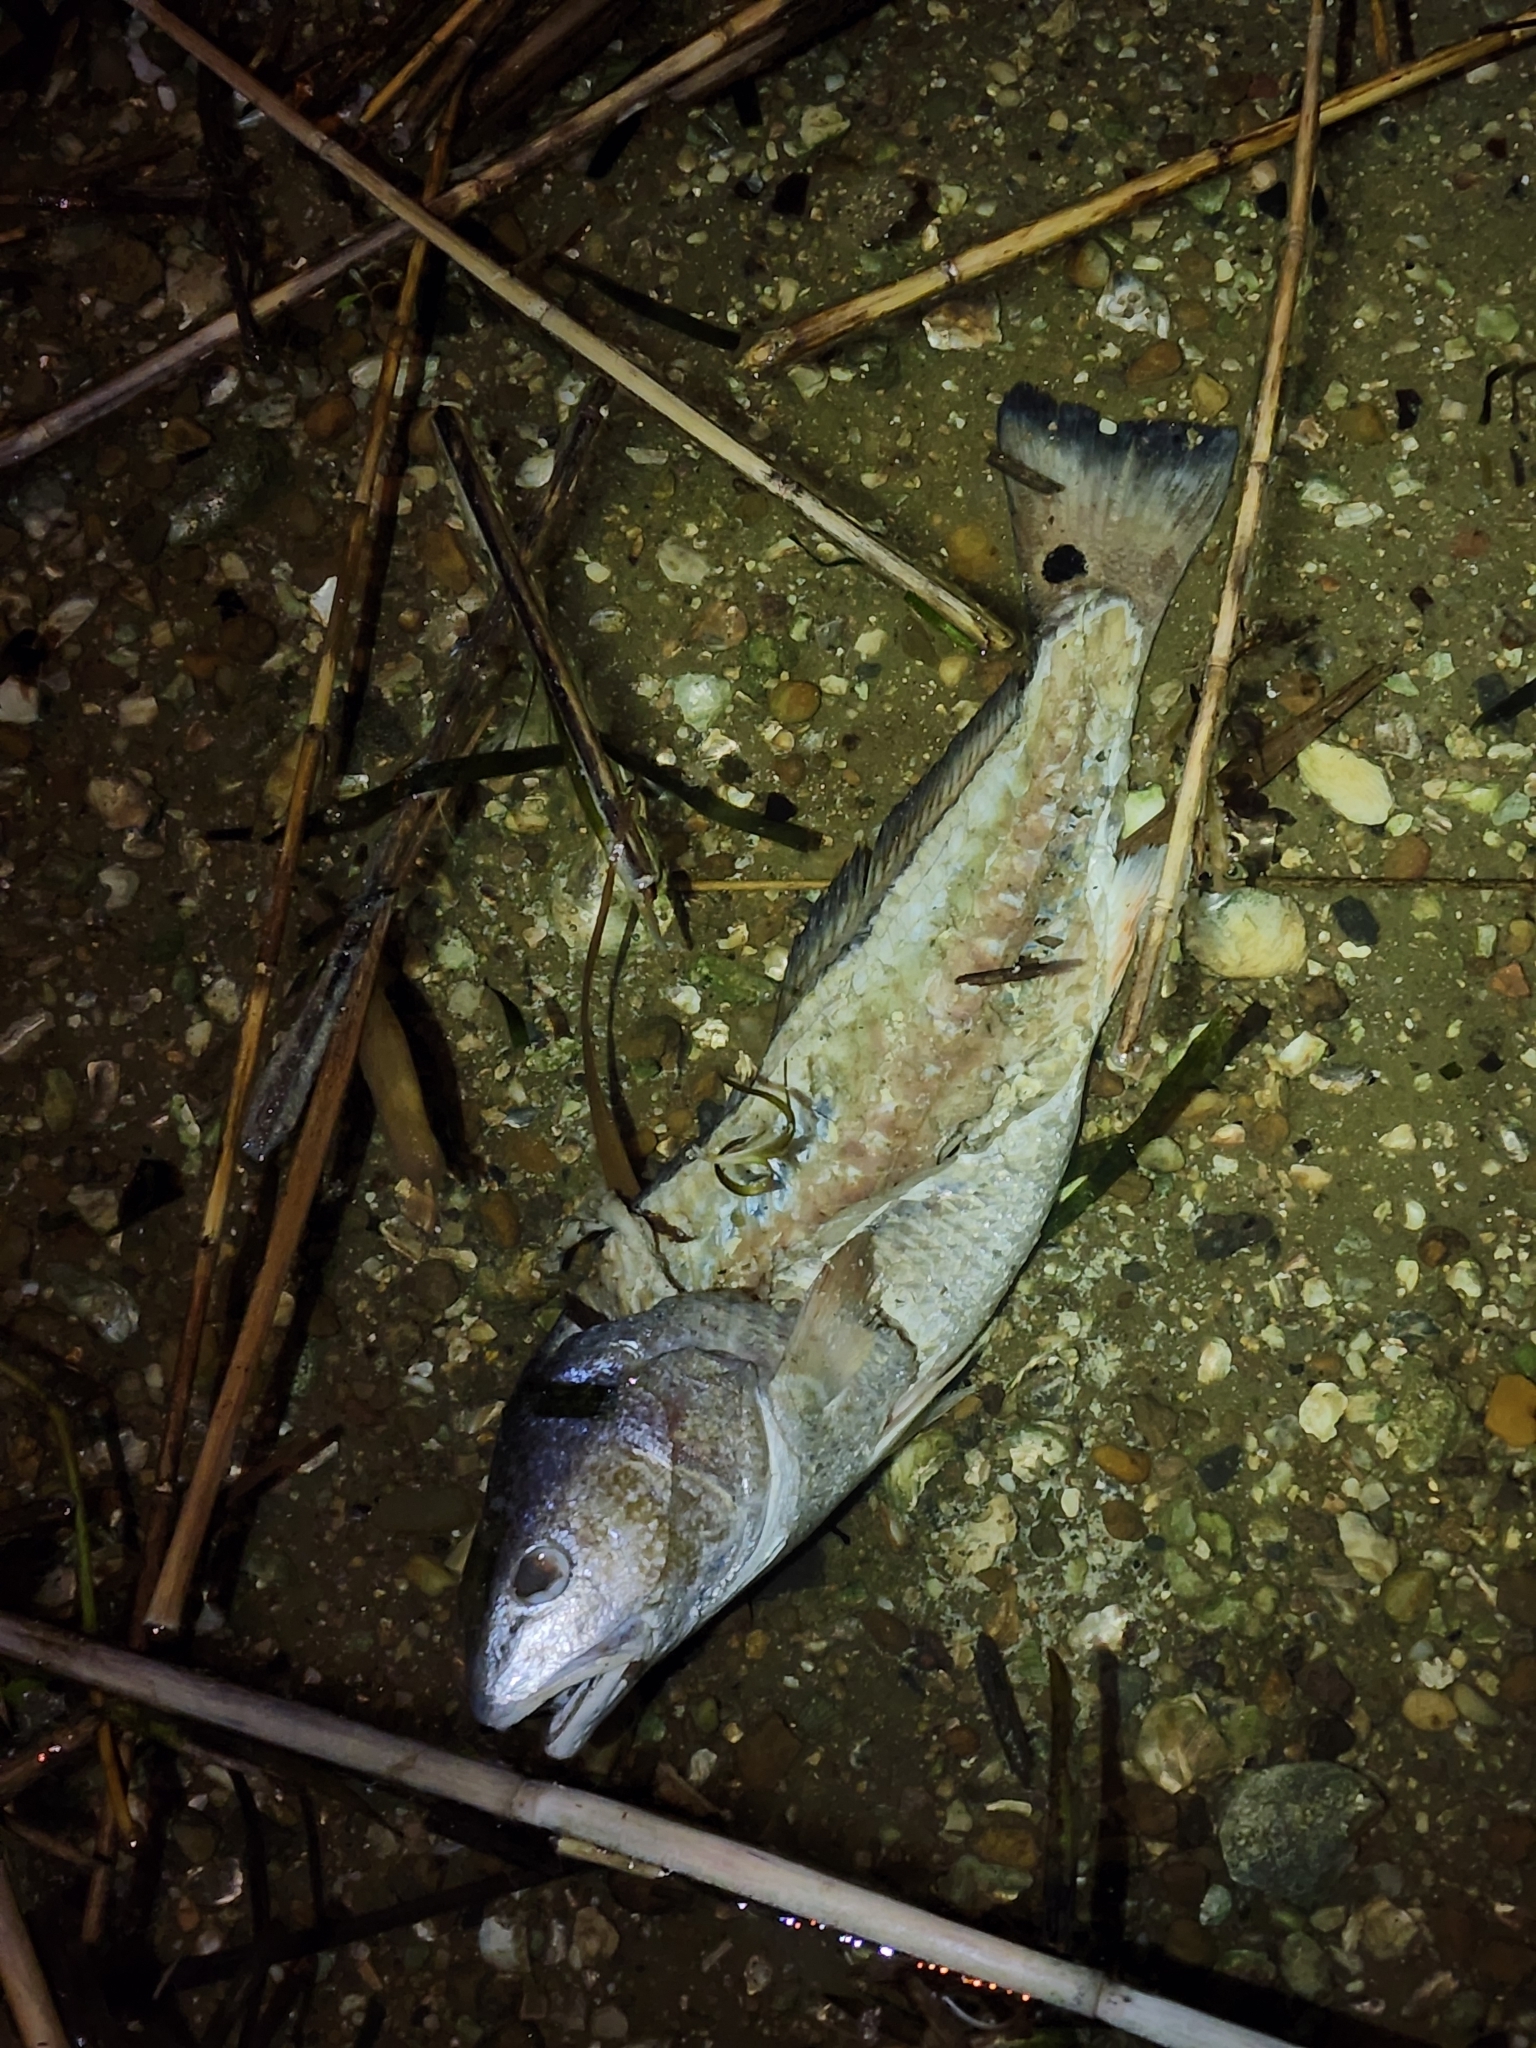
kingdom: Animalia
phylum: Chordata
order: Perciformes
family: Sciaenidae
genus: Sciaenops
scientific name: Sciaenops ocellatus
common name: Red drum
